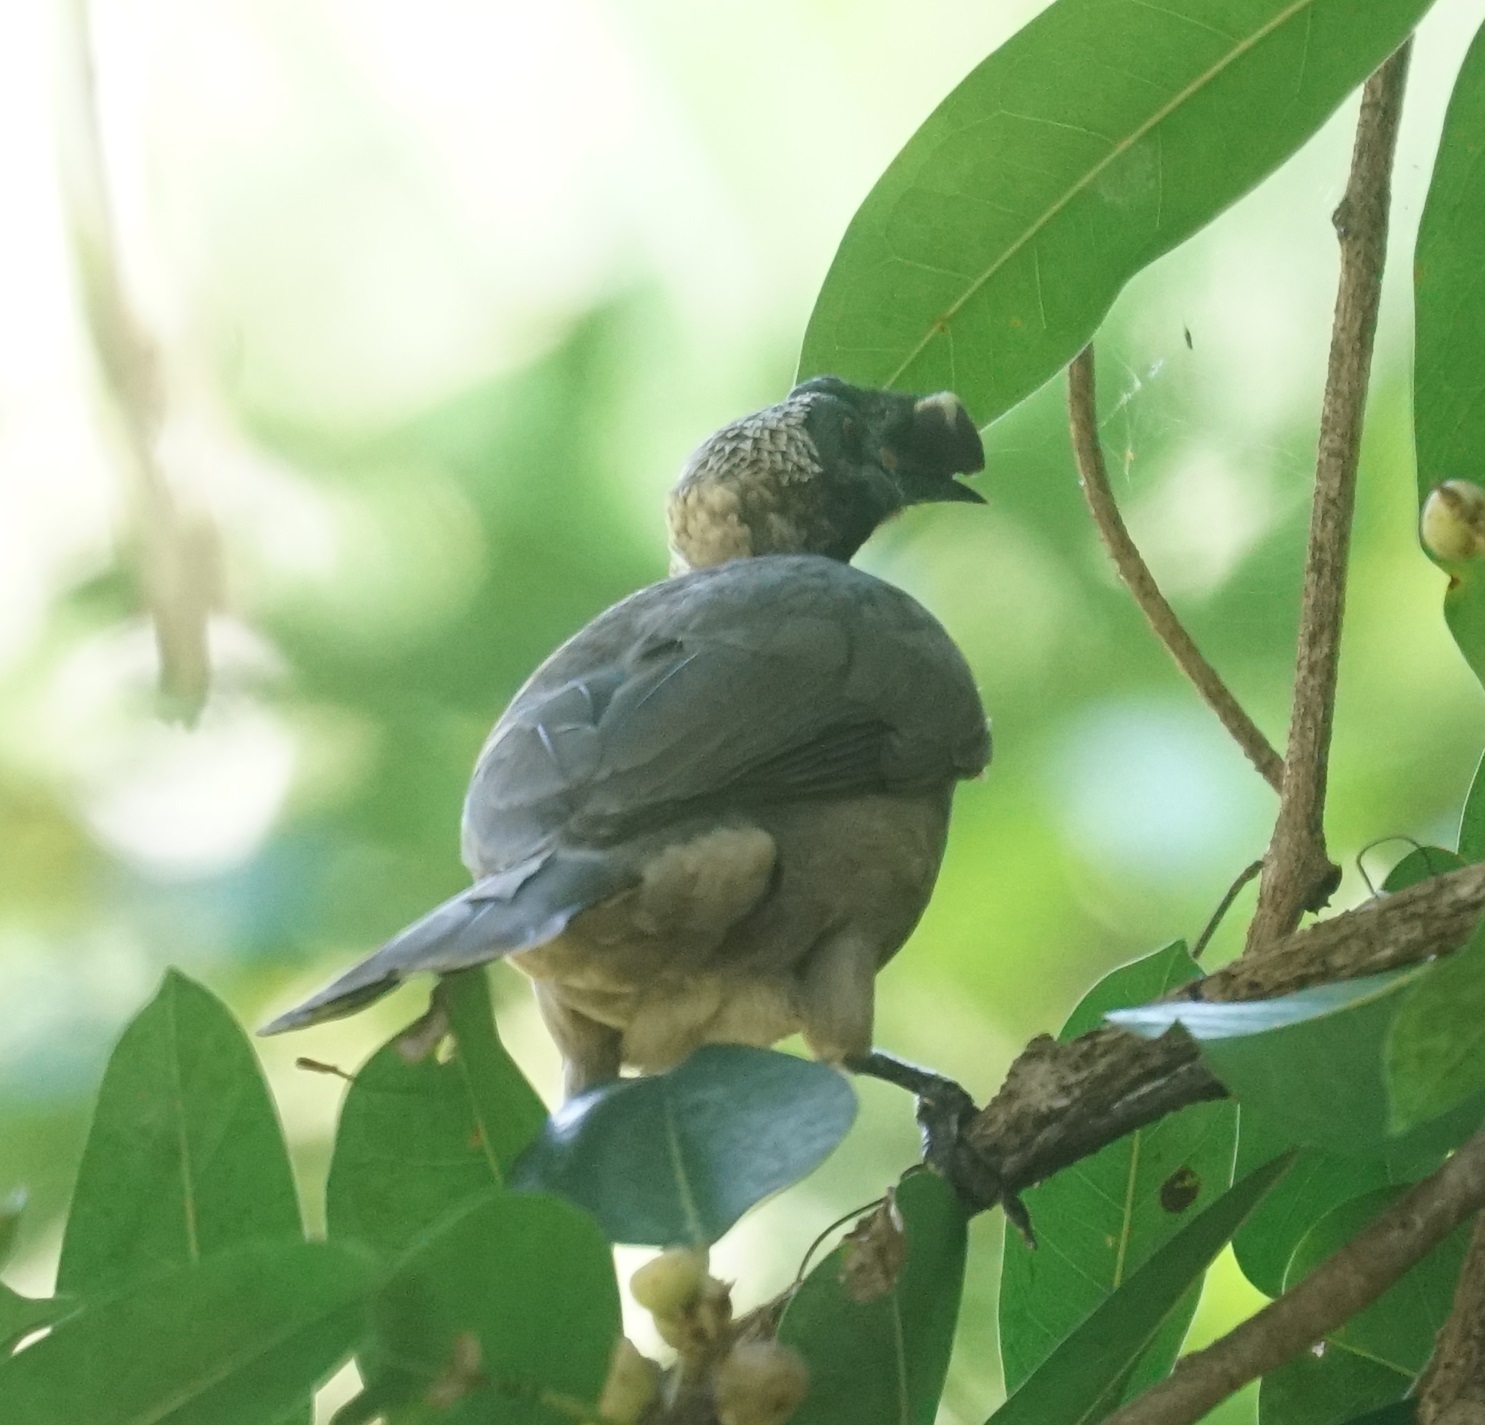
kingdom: Animalia
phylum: Chordata
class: Aves
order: Passeriformes
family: Meliphagidae
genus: Philemon
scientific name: Philemon buceroides
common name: Helmeted friarbird
